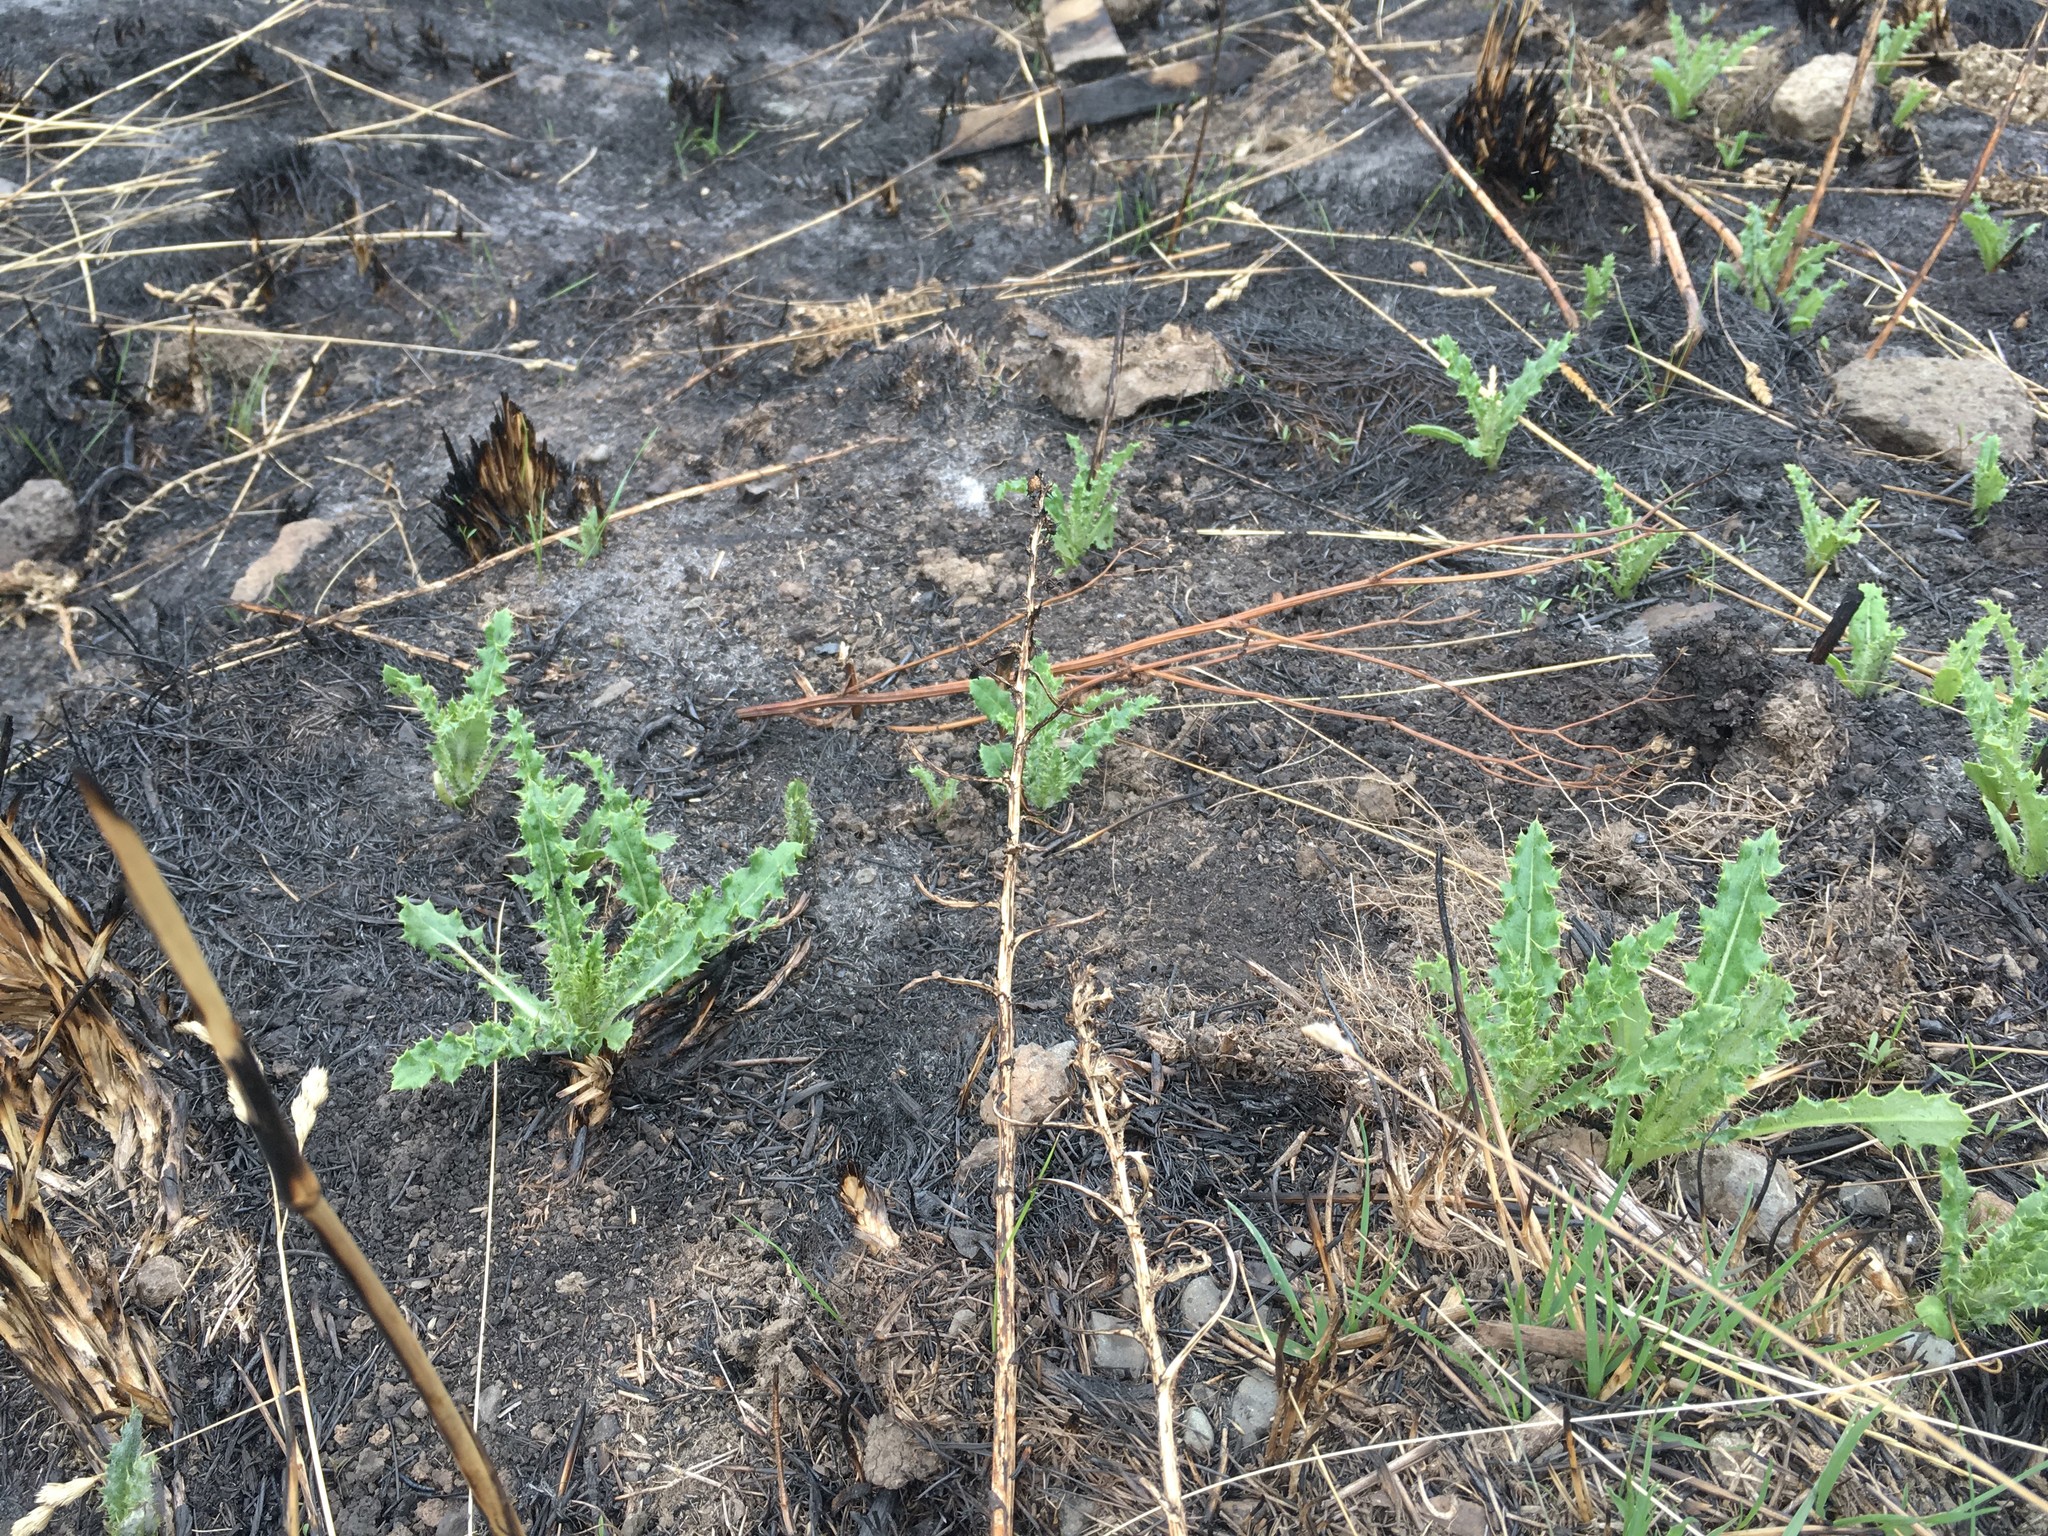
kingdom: Plantae
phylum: Tracheophyta
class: Magnoliopsida
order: Asterales
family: Asteraceae
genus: Cirsium
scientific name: Cirsium arvense
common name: Creeping thistle
